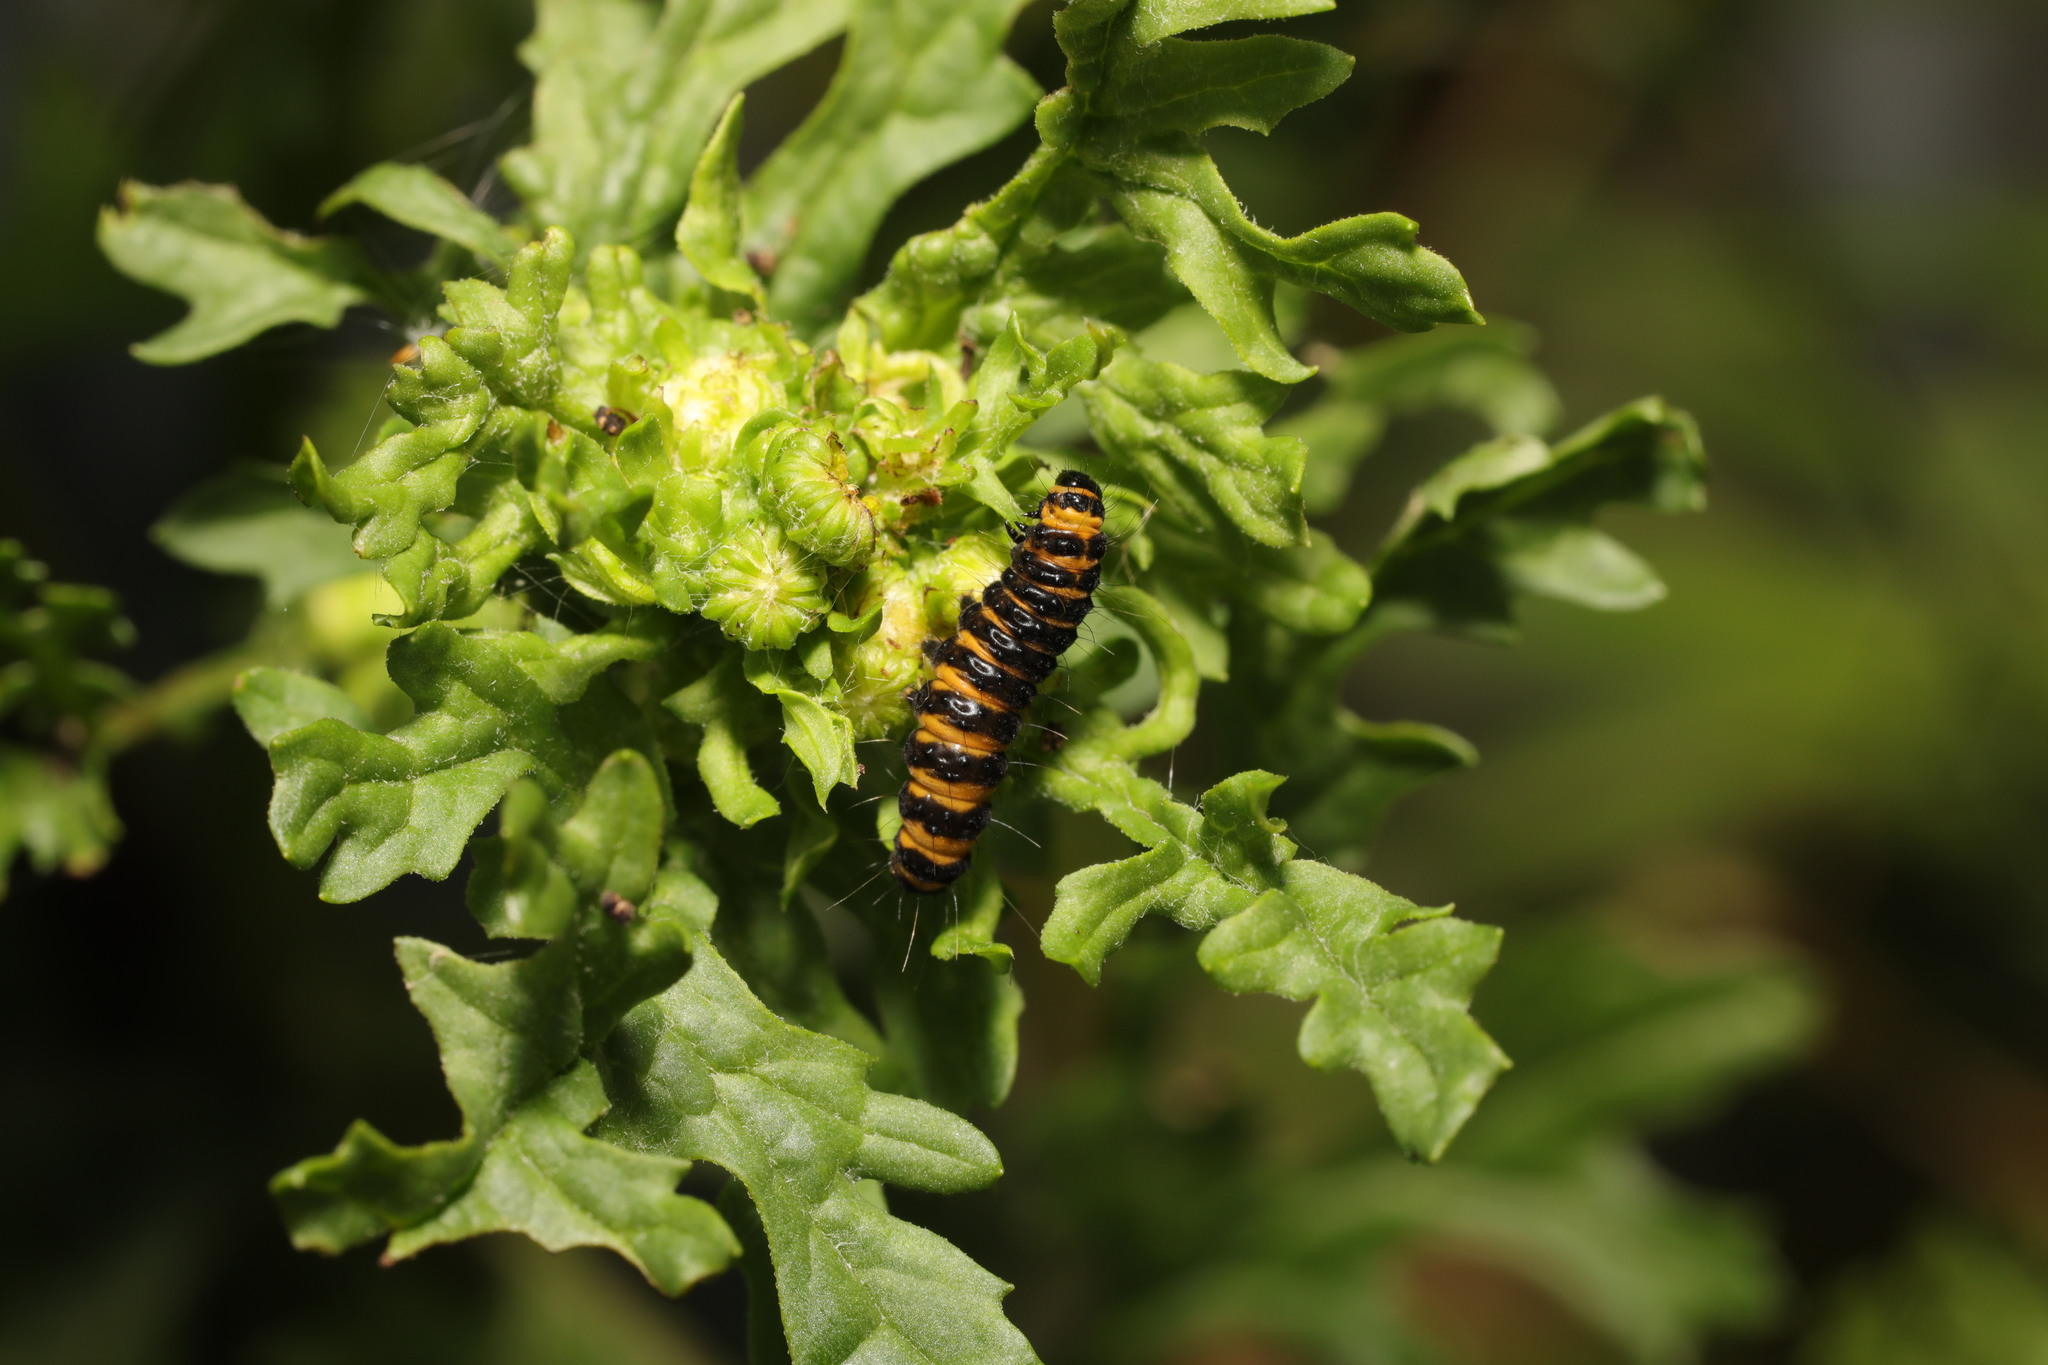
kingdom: Animalia
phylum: Arthropoda
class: Insecta
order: Lepidoptera
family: Erebidae
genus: Tyria
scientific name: Tyria jacobaeae
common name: Cinnabar
